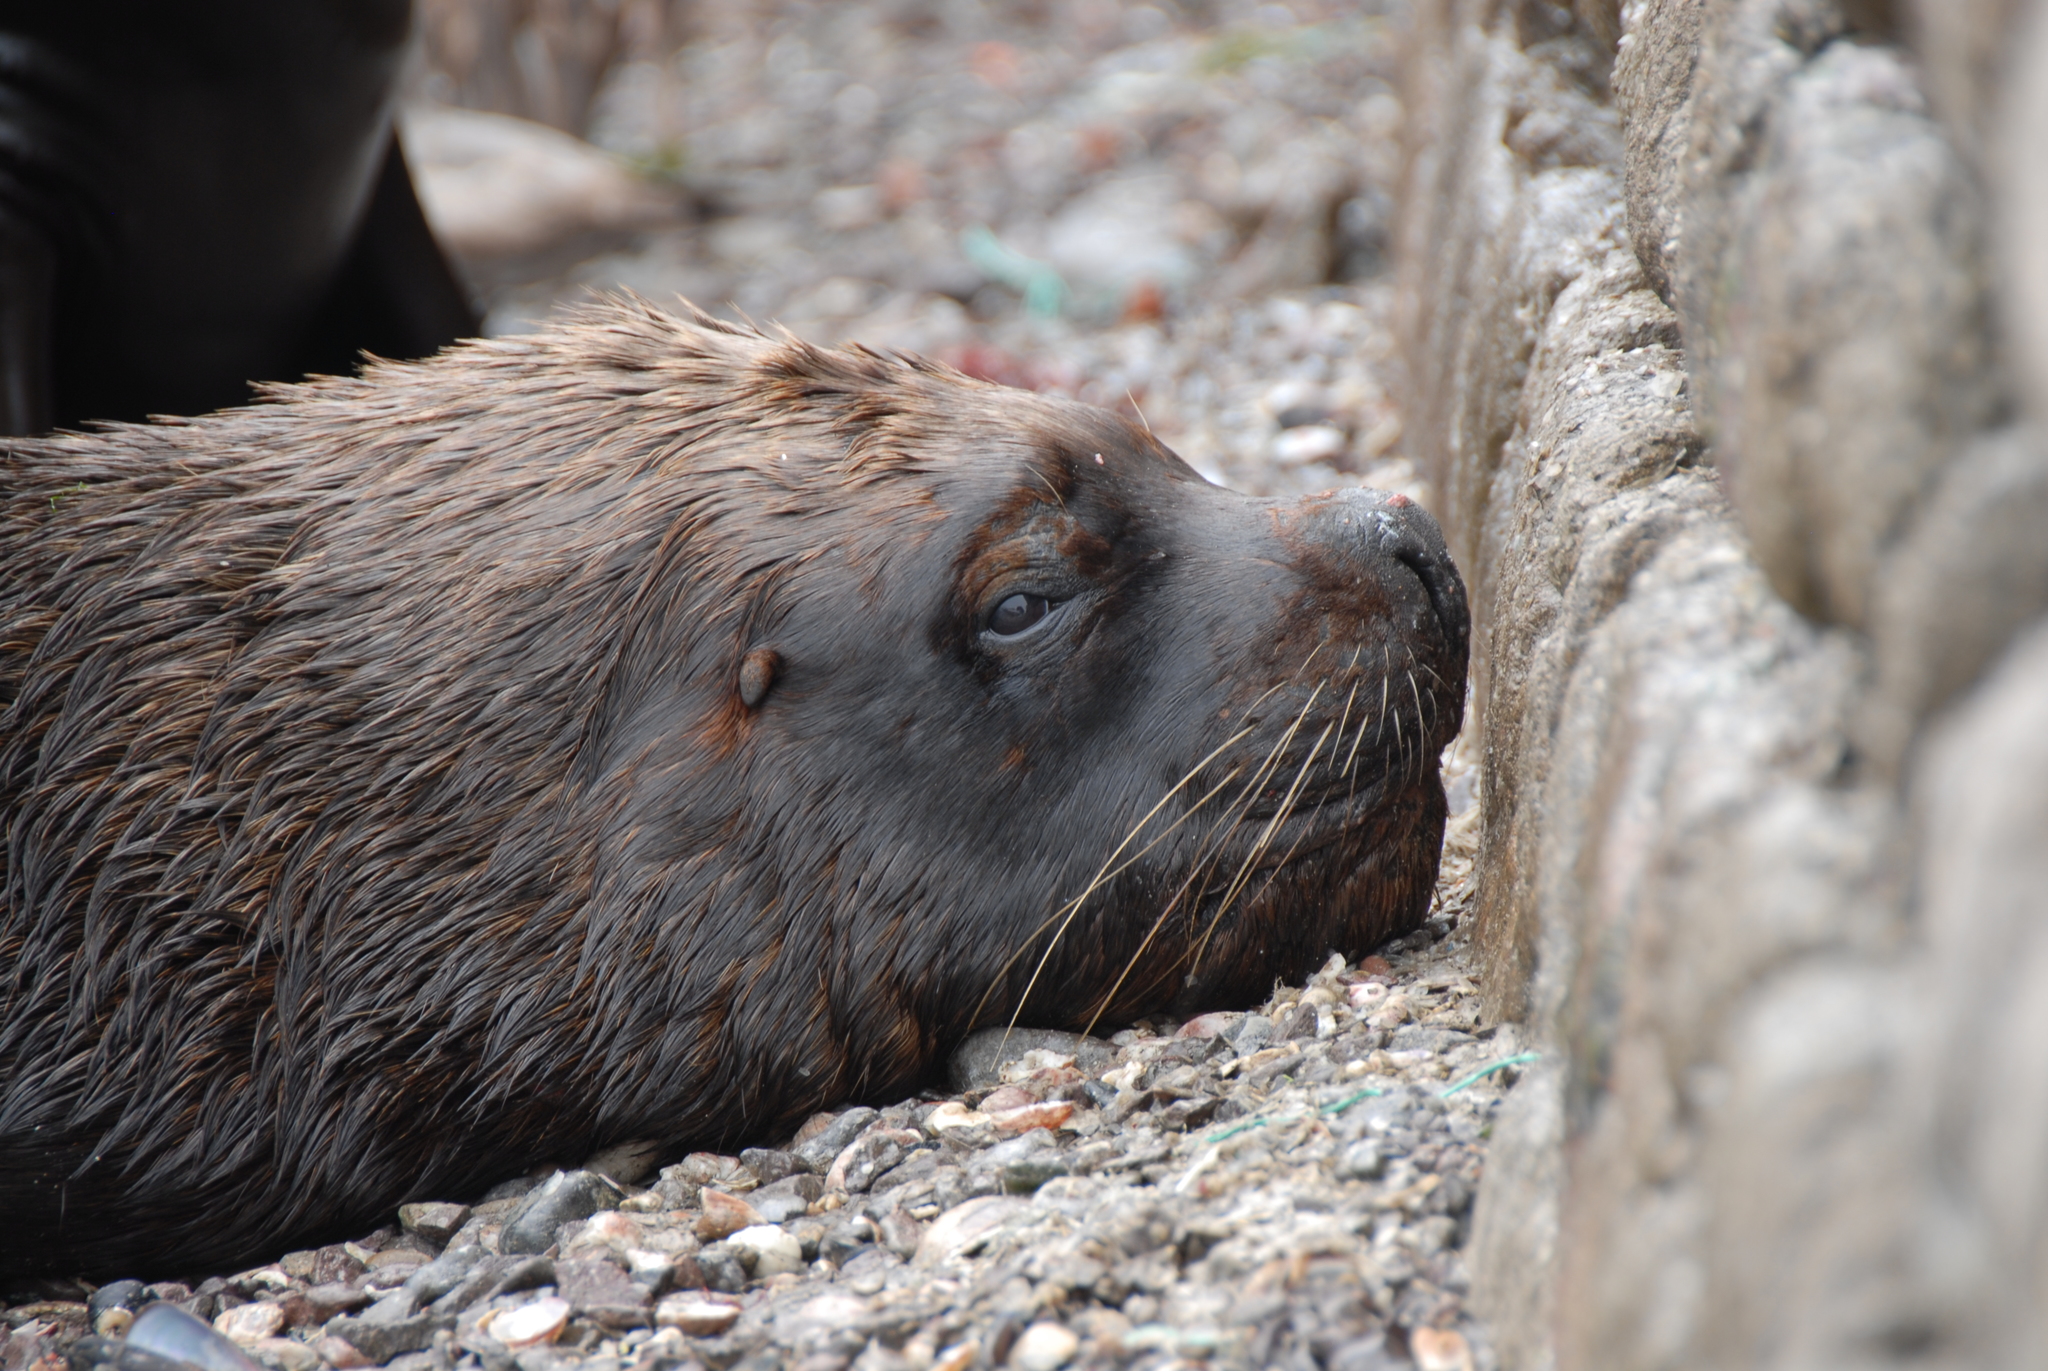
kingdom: Animalia
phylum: Chordata
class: Mammalia
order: Carnivora
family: Otariidae
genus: Otaria
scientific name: Otaria byronia
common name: South american sea lion
